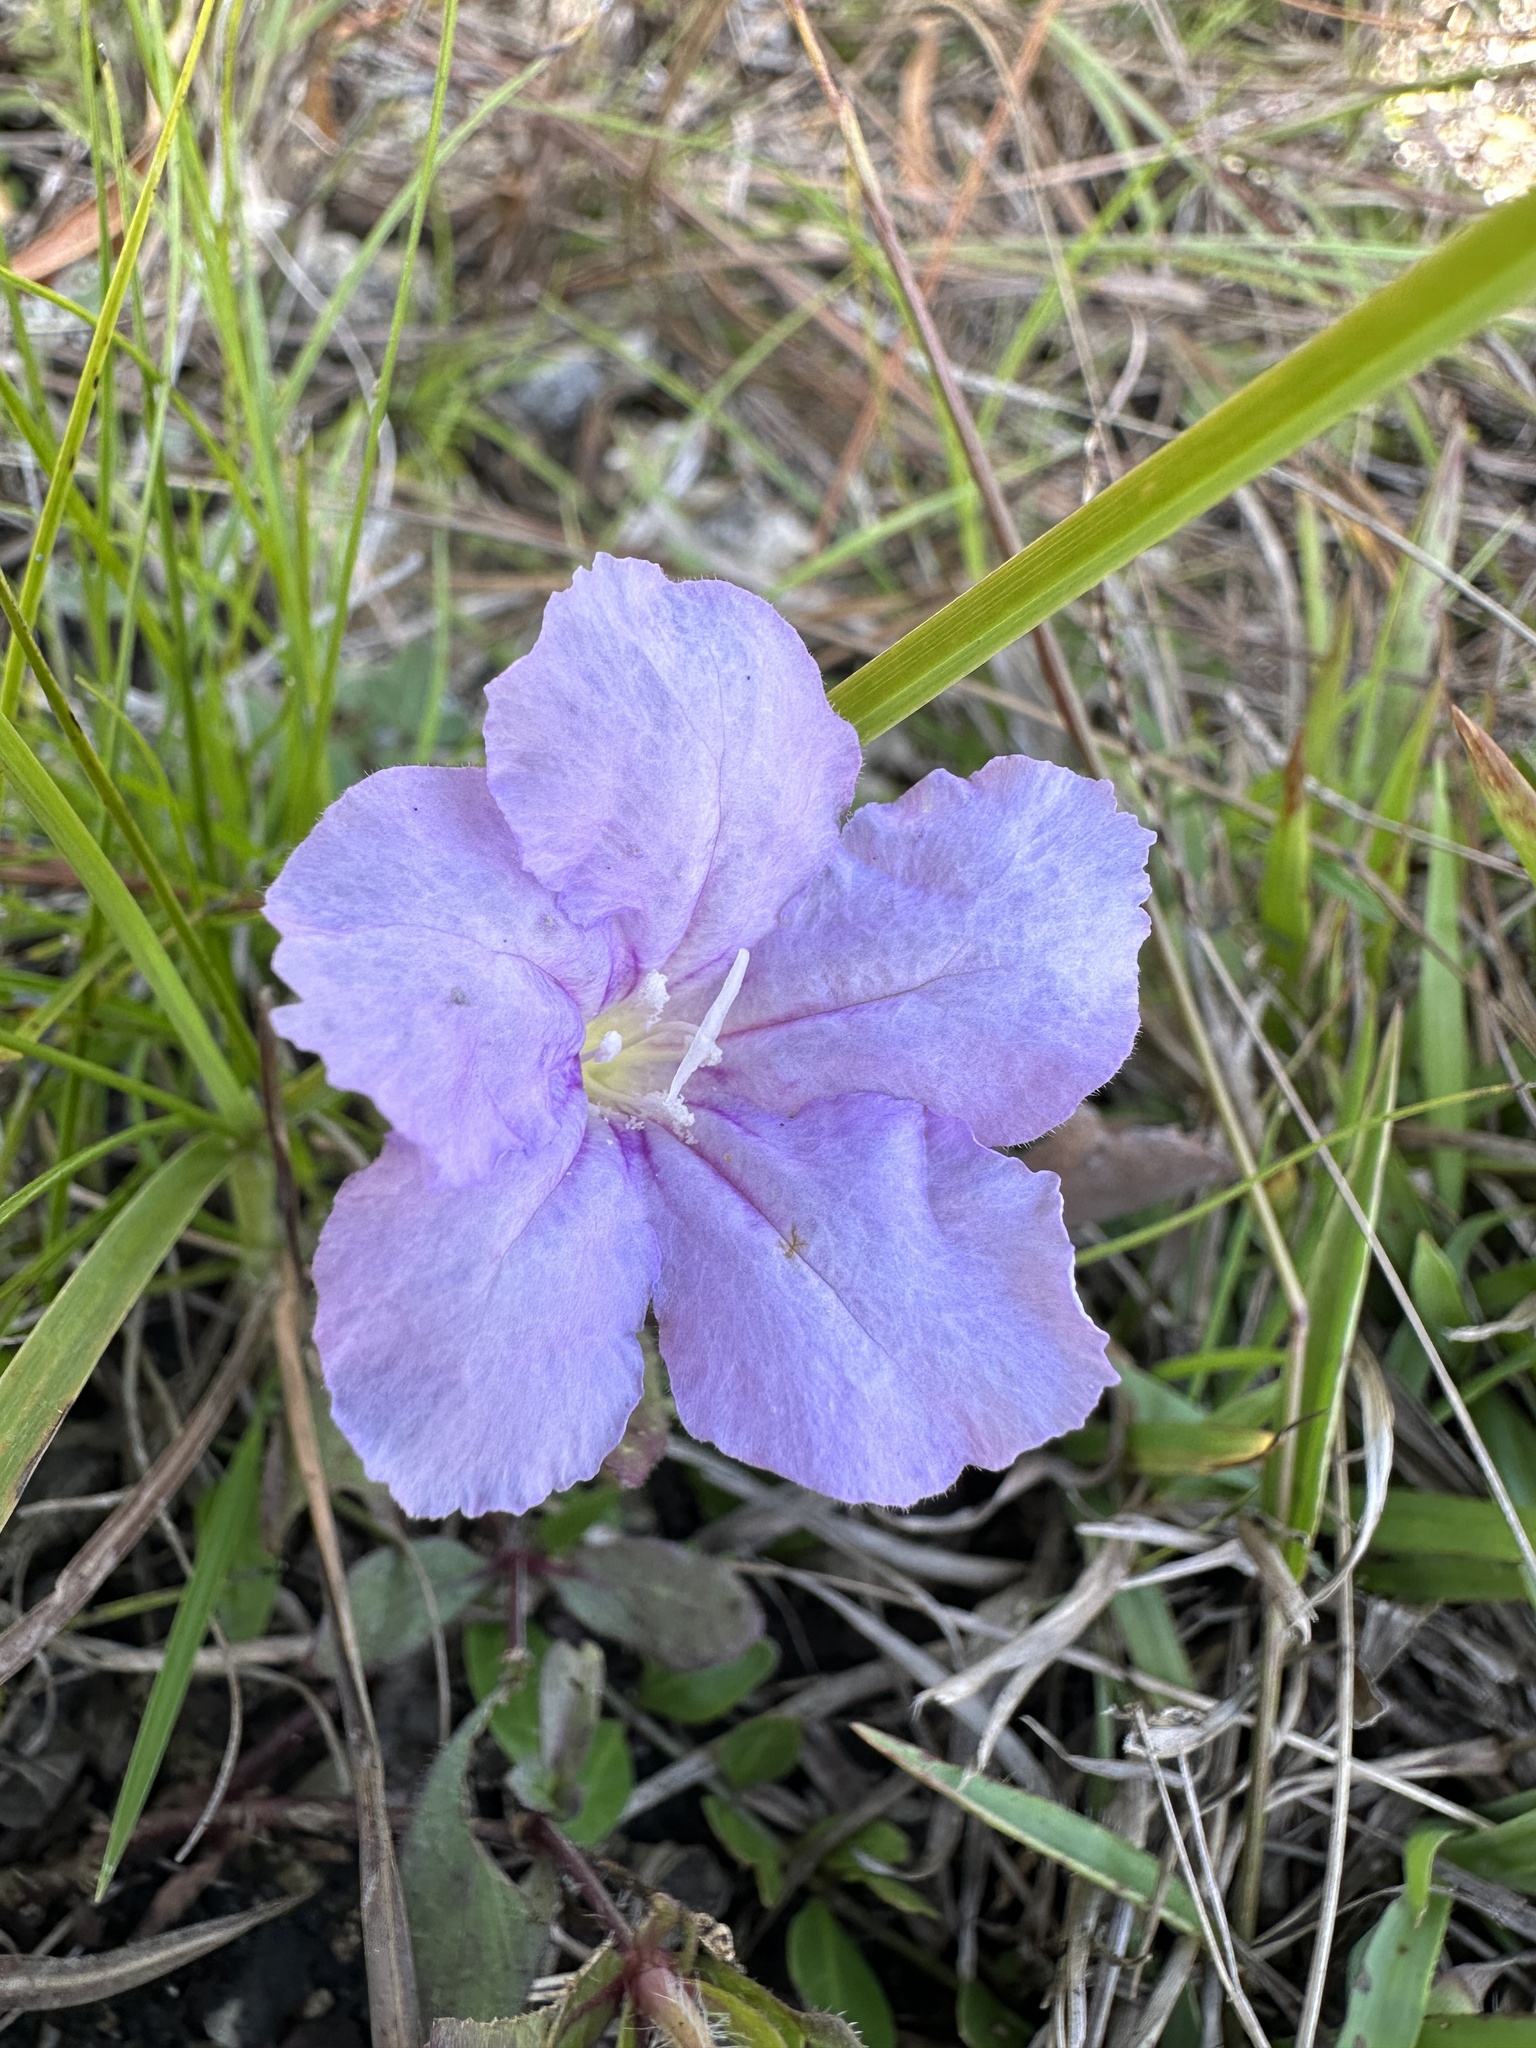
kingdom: Plantae
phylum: Tracheophyta
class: Magnoliopsida
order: Lamiales
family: Acanthaceae
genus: Ruellia
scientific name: Ruellia caroliniensis
